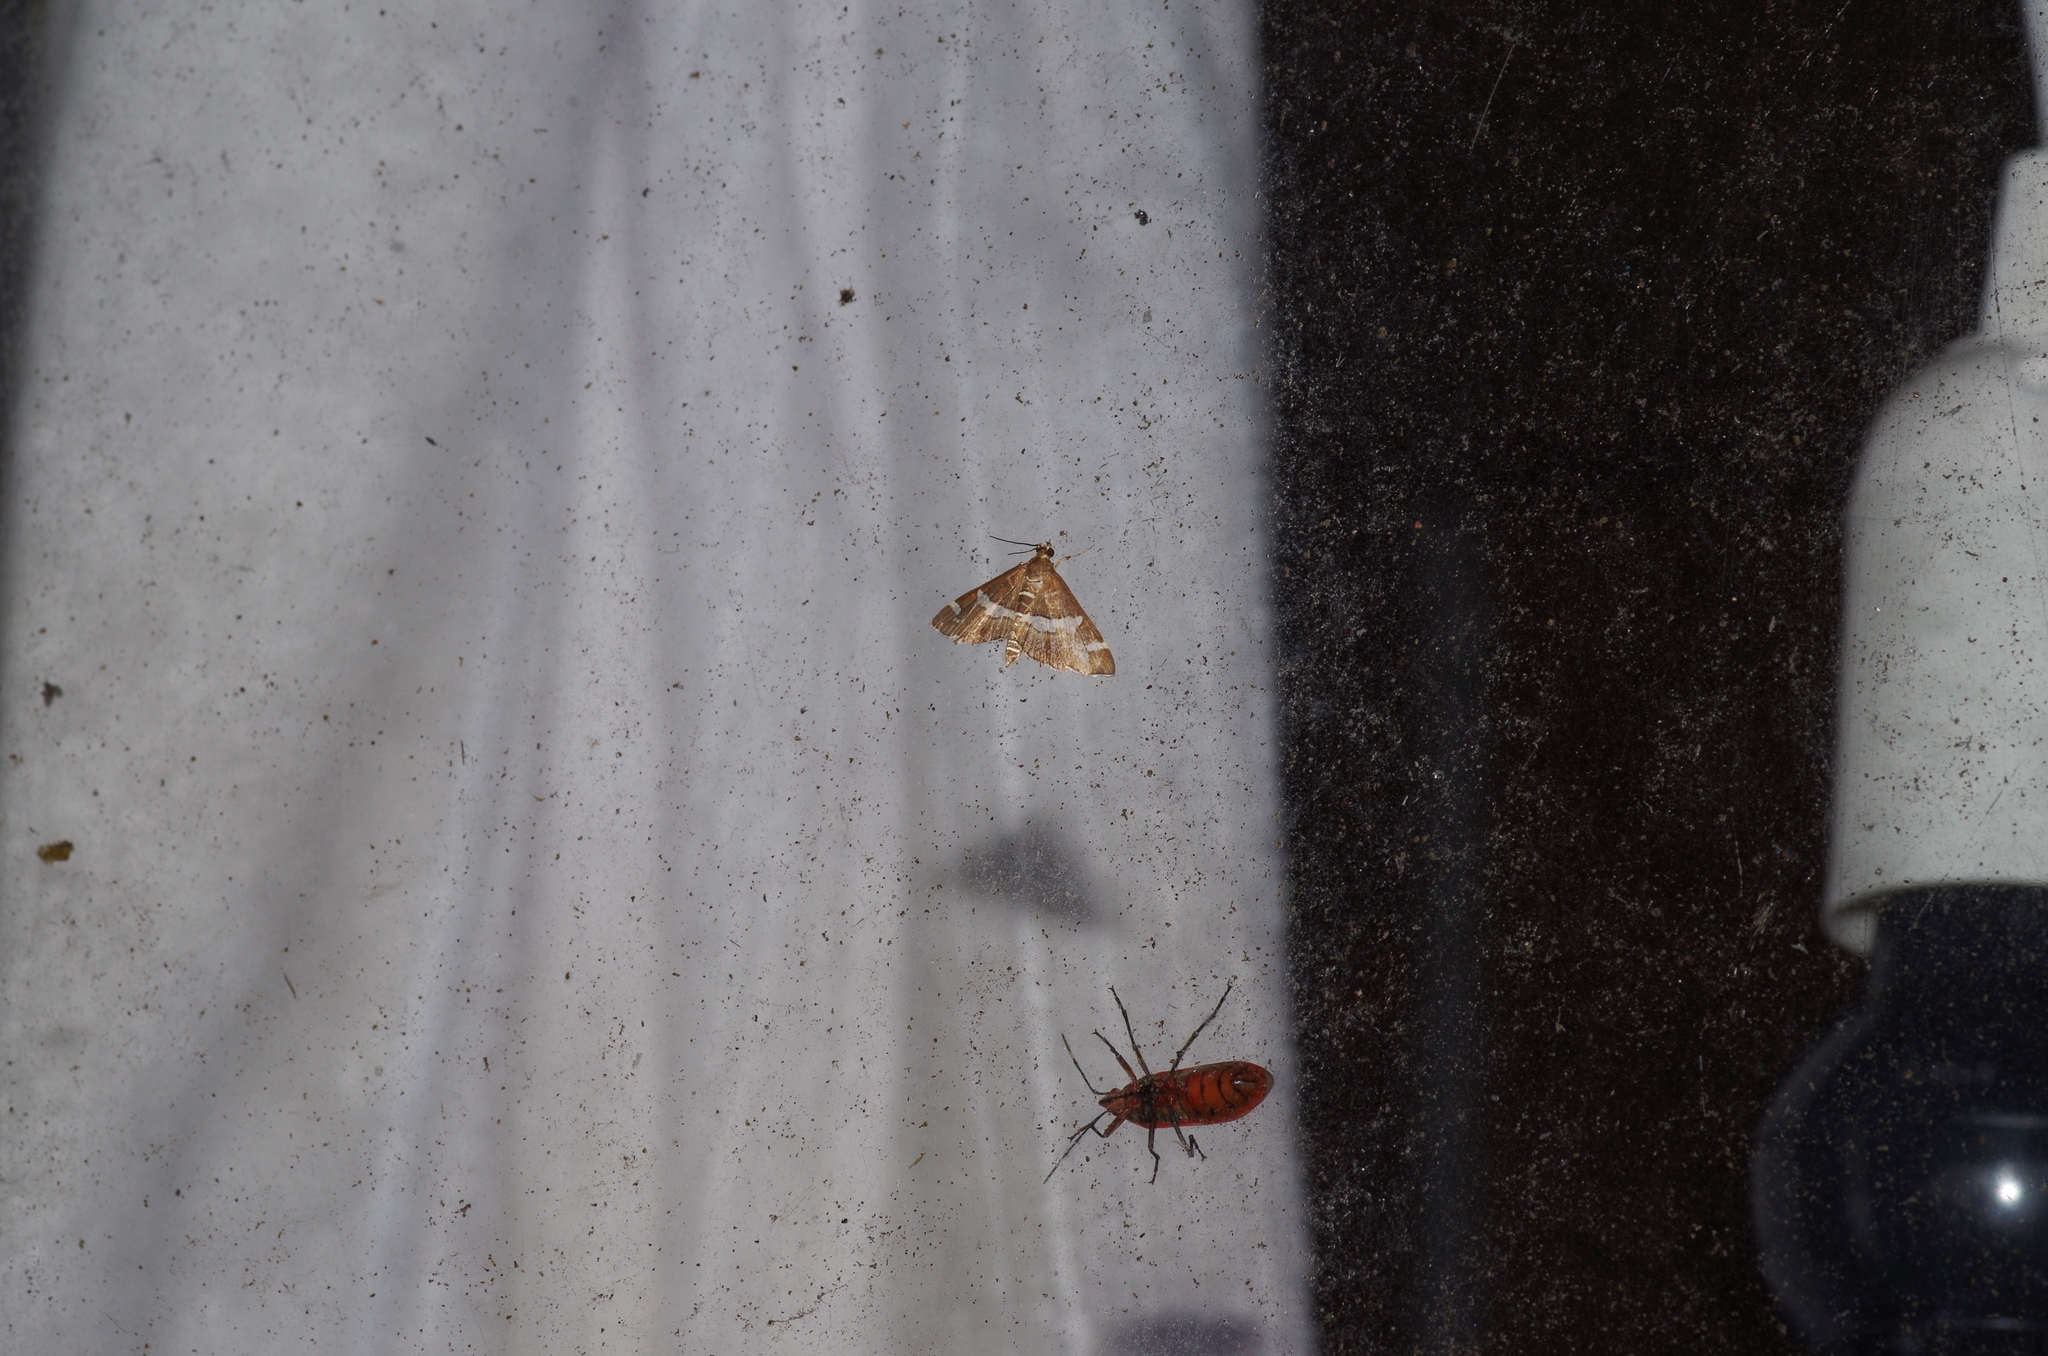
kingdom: Animalia
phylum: Arthropoda
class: Insecta
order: Lepidoptera
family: Crambidae
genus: Spoladea
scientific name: Spoladea recurvalis
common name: Beet webworm moth
